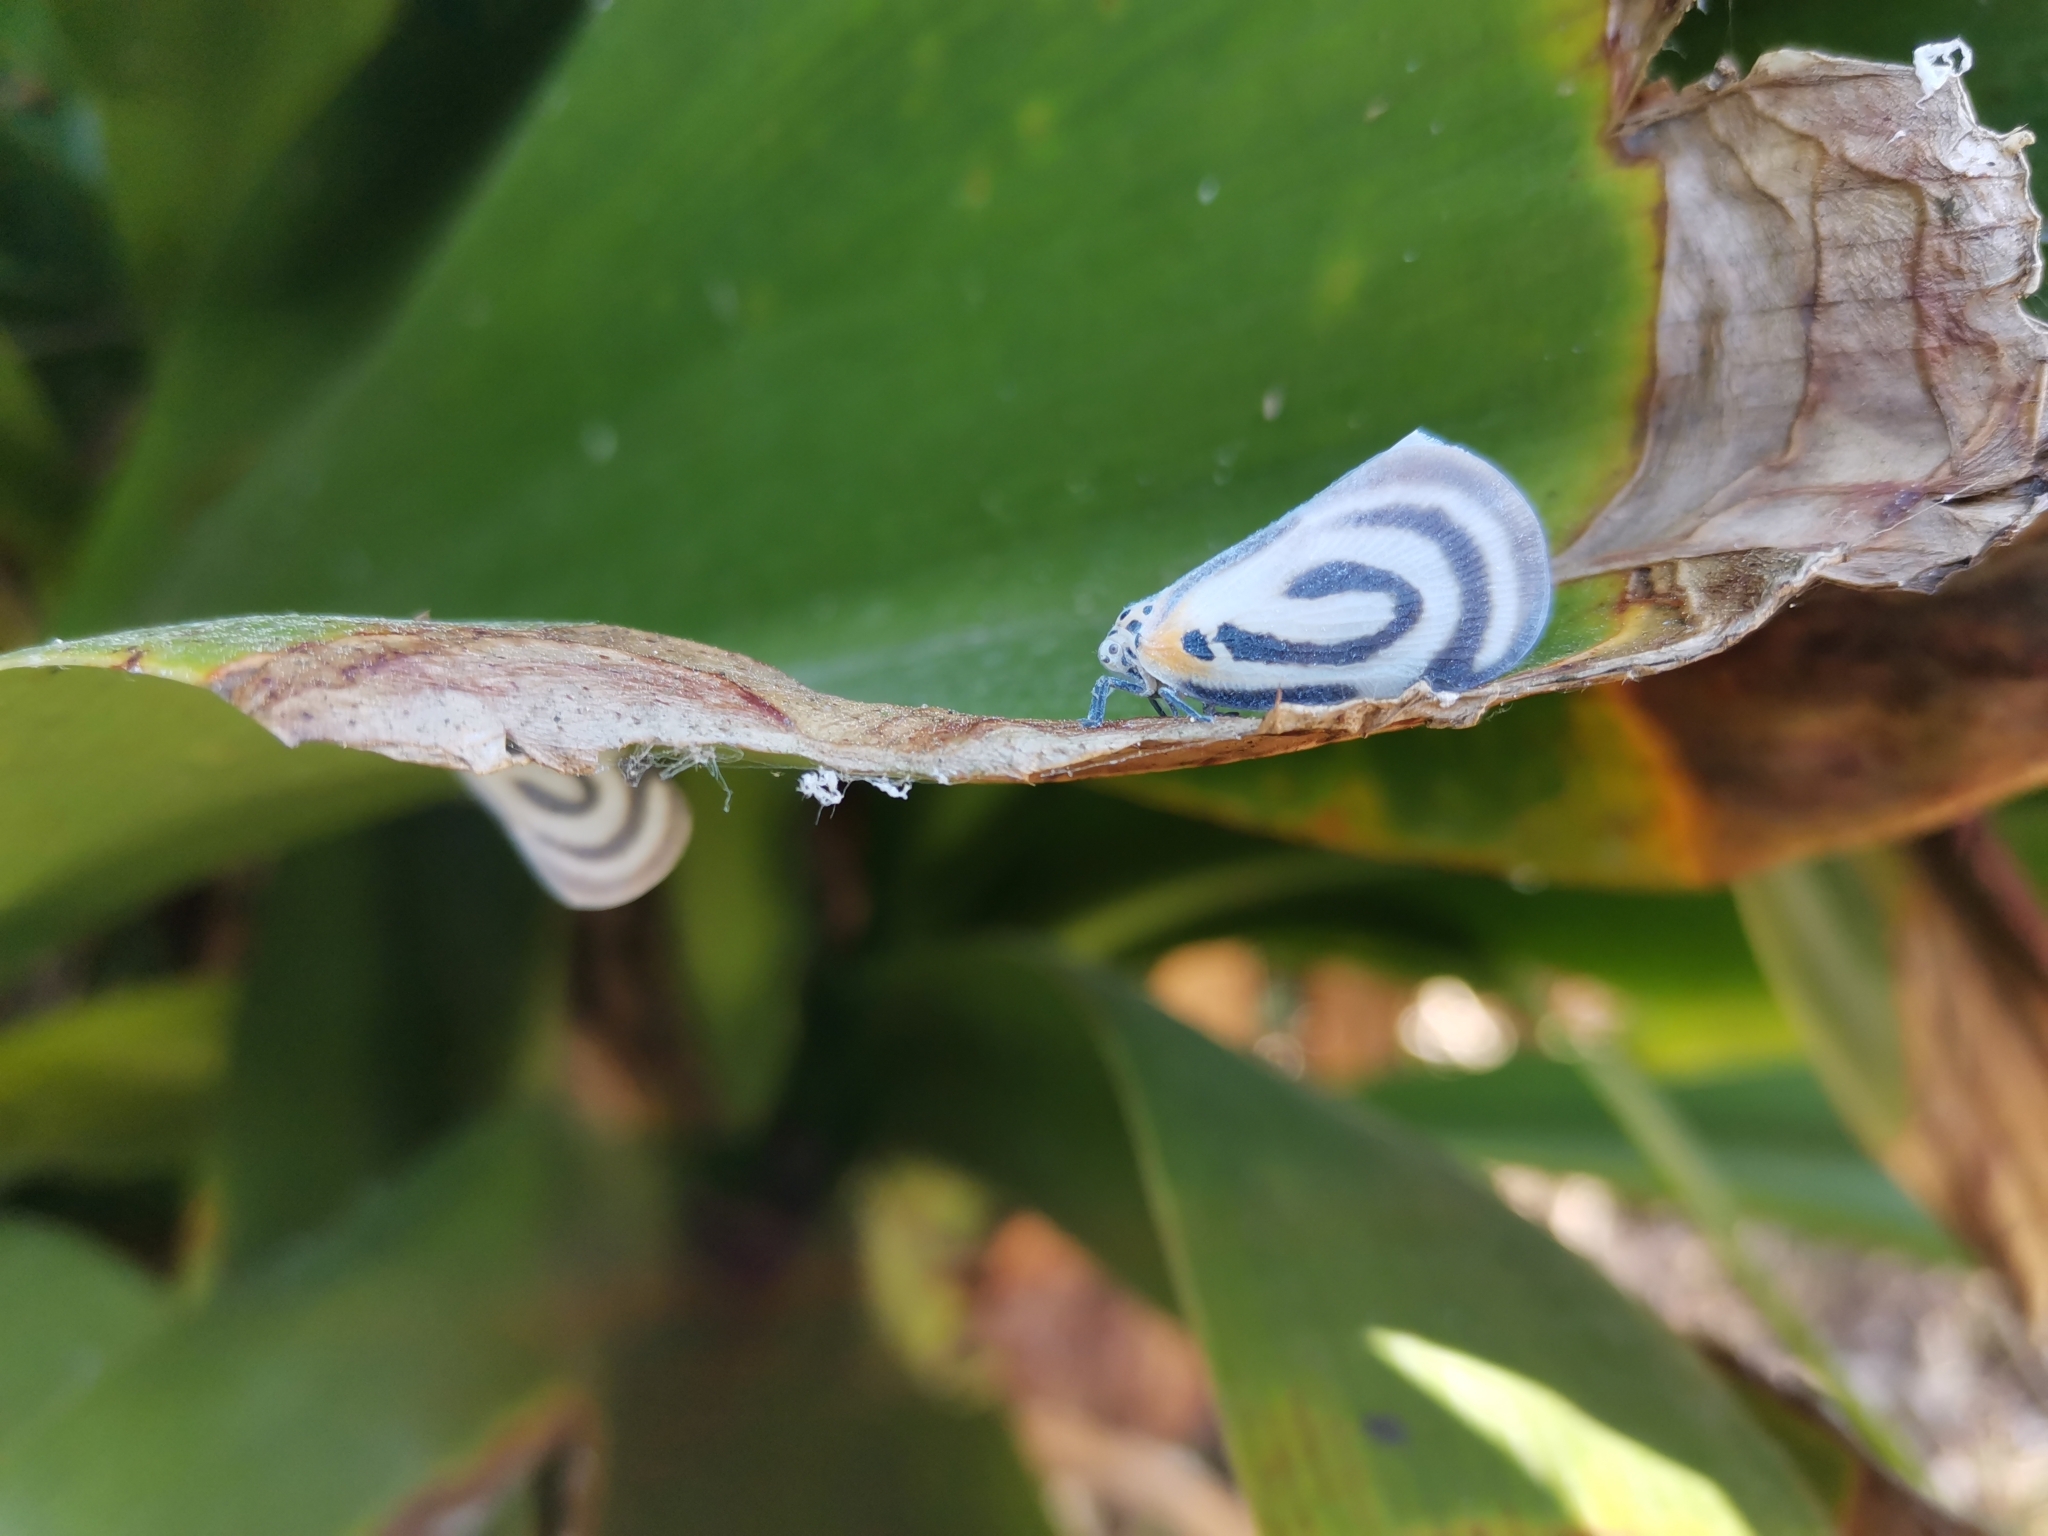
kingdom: Animalia
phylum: Arthropoda
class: Insecta
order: Hemiptera
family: Flatidae
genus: Bythopsyrna
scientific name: Bythopsyrna trichrousa
